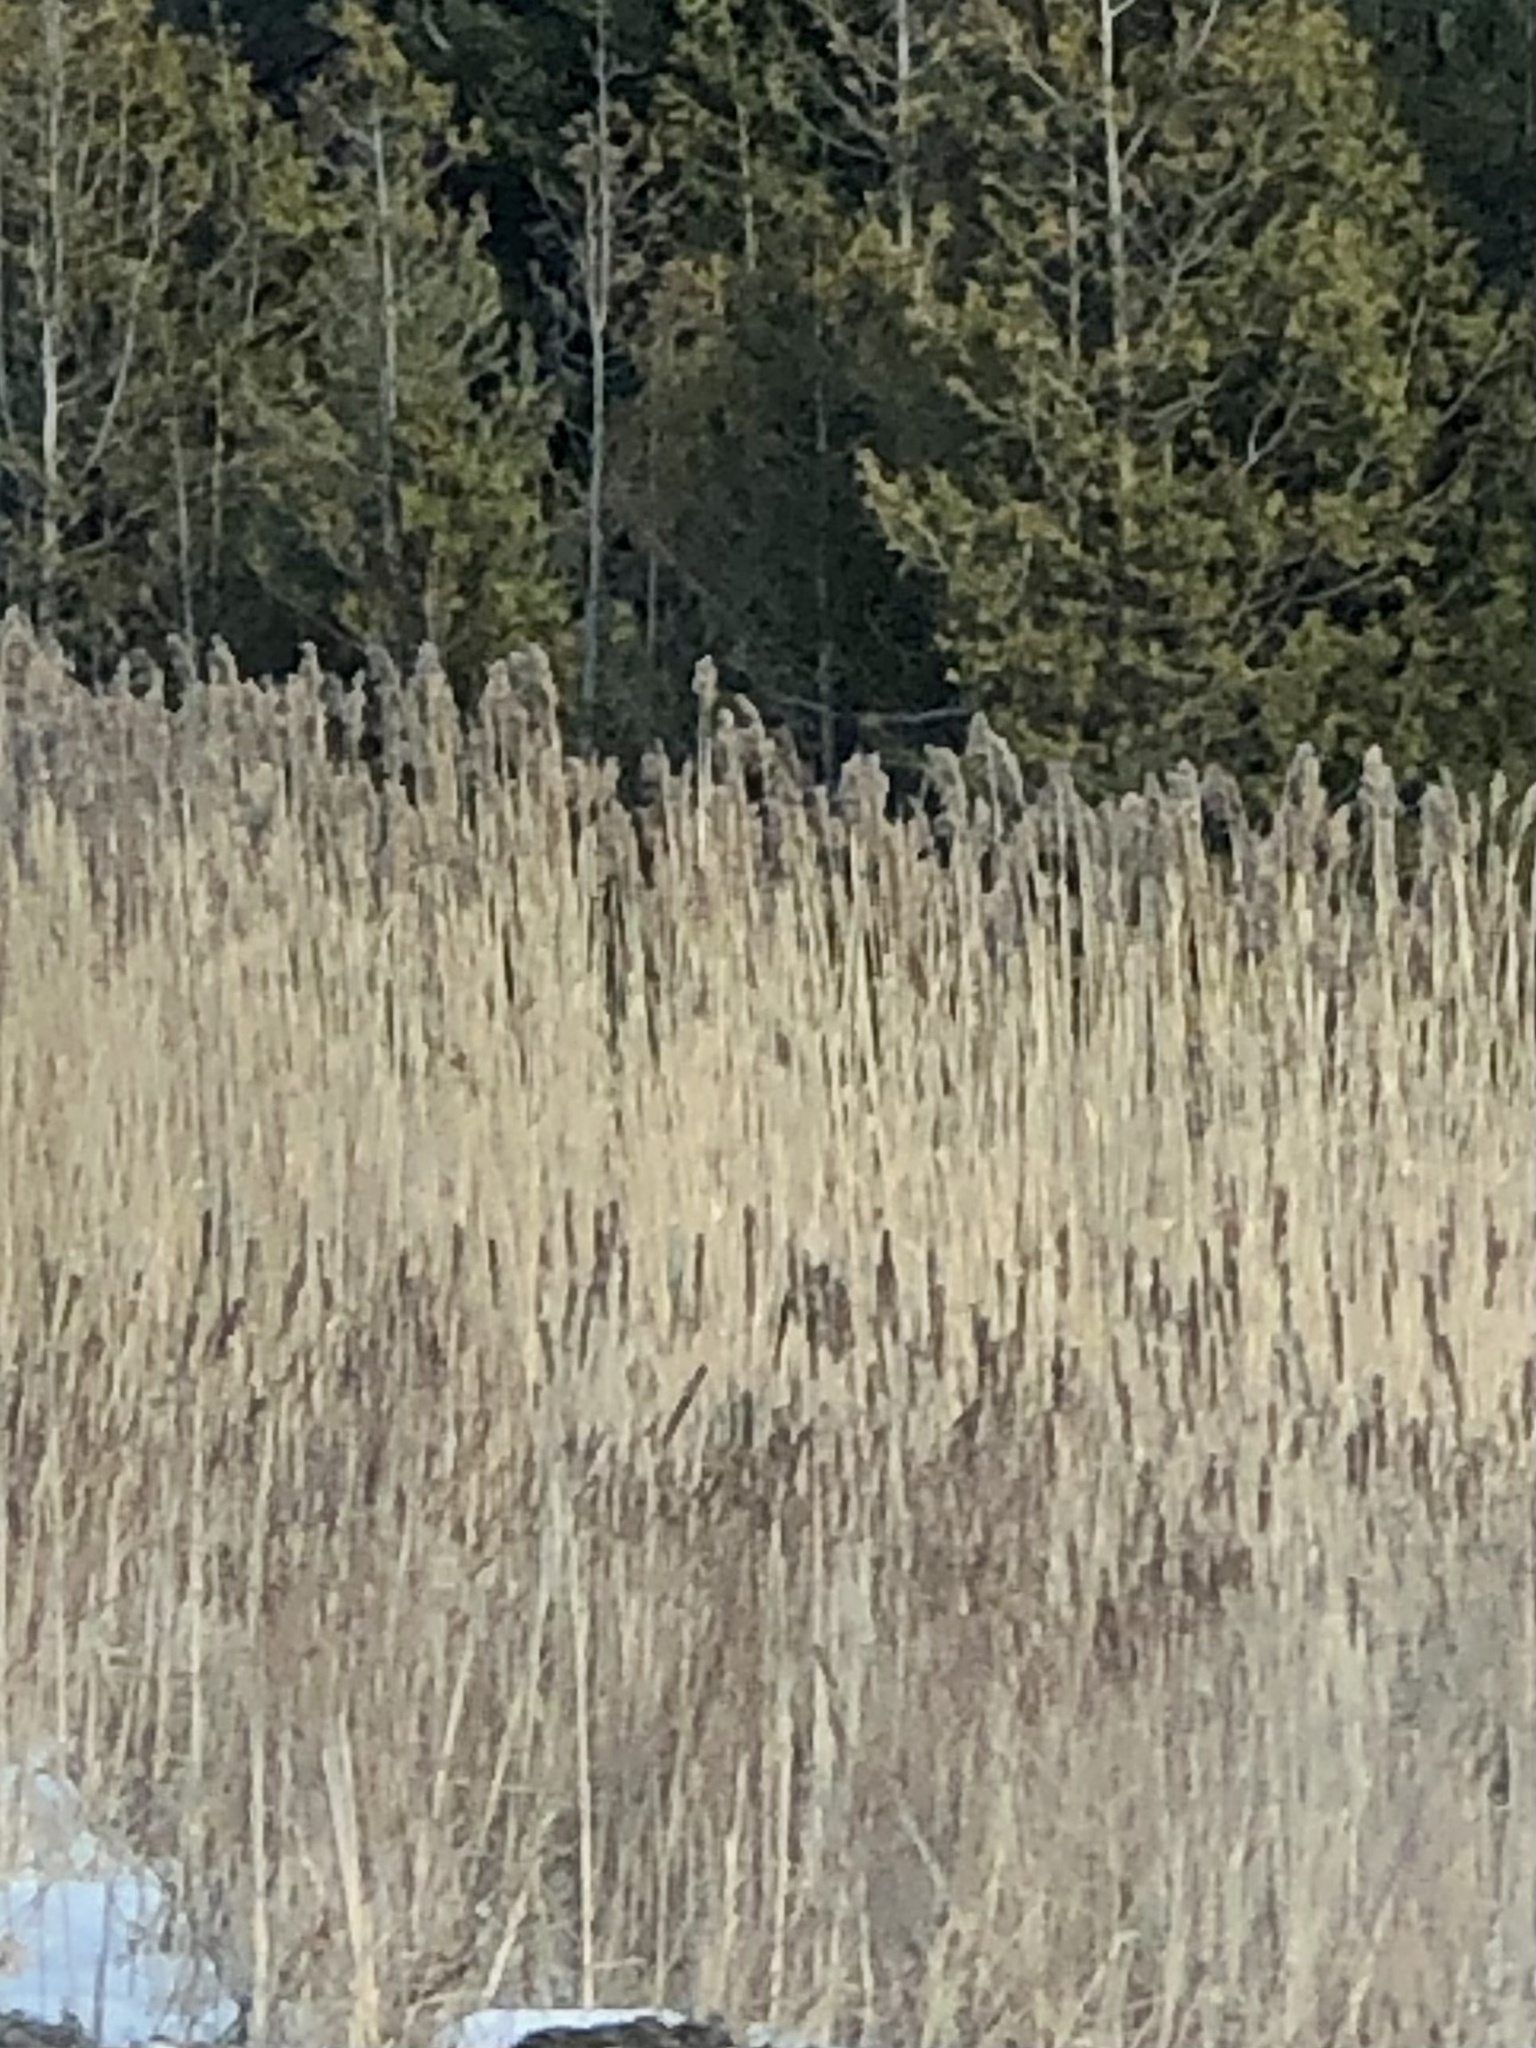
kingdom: Plantae
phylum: Tracheophyta
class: Liliopsida
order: Poales
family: Poaceae
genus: Phragmites
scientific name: Phragmites australis
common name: Common reed
